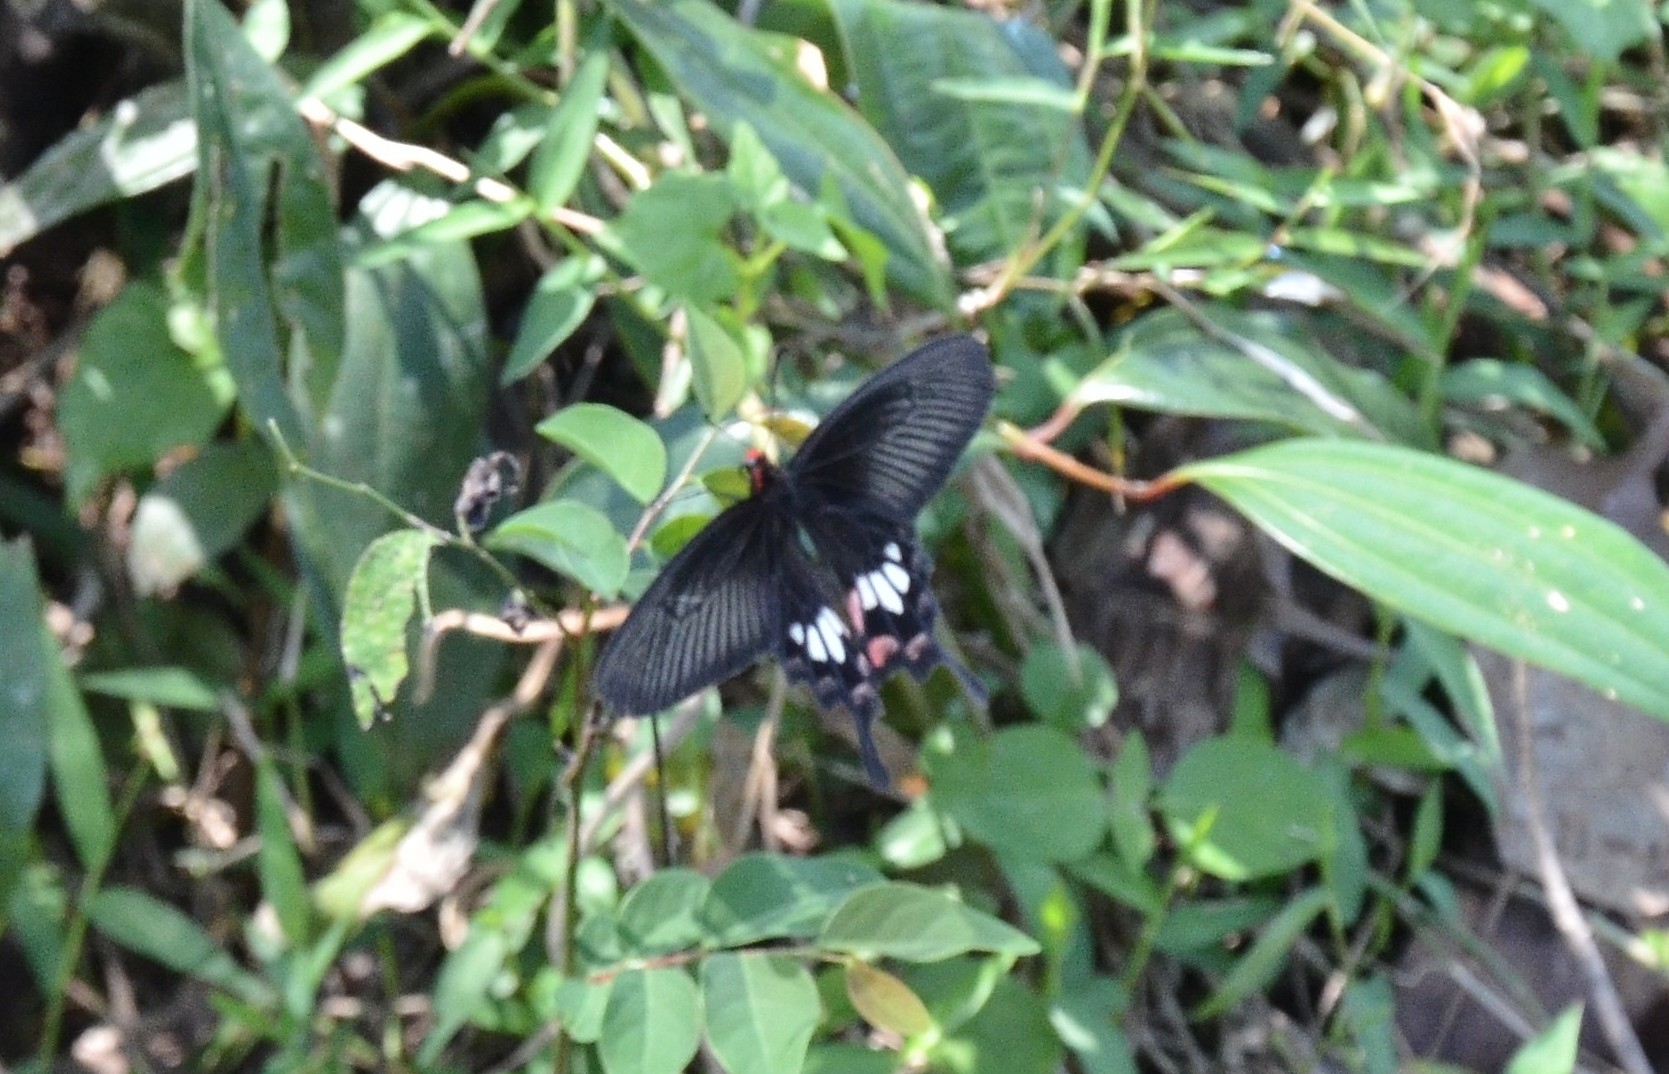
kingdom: Animalia
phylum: Arthropoda
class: Insecta
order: Lepidoptera
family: Papilionidae
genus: Pachliopta
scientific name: Pachliopta aristolochiae
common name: Common rose
